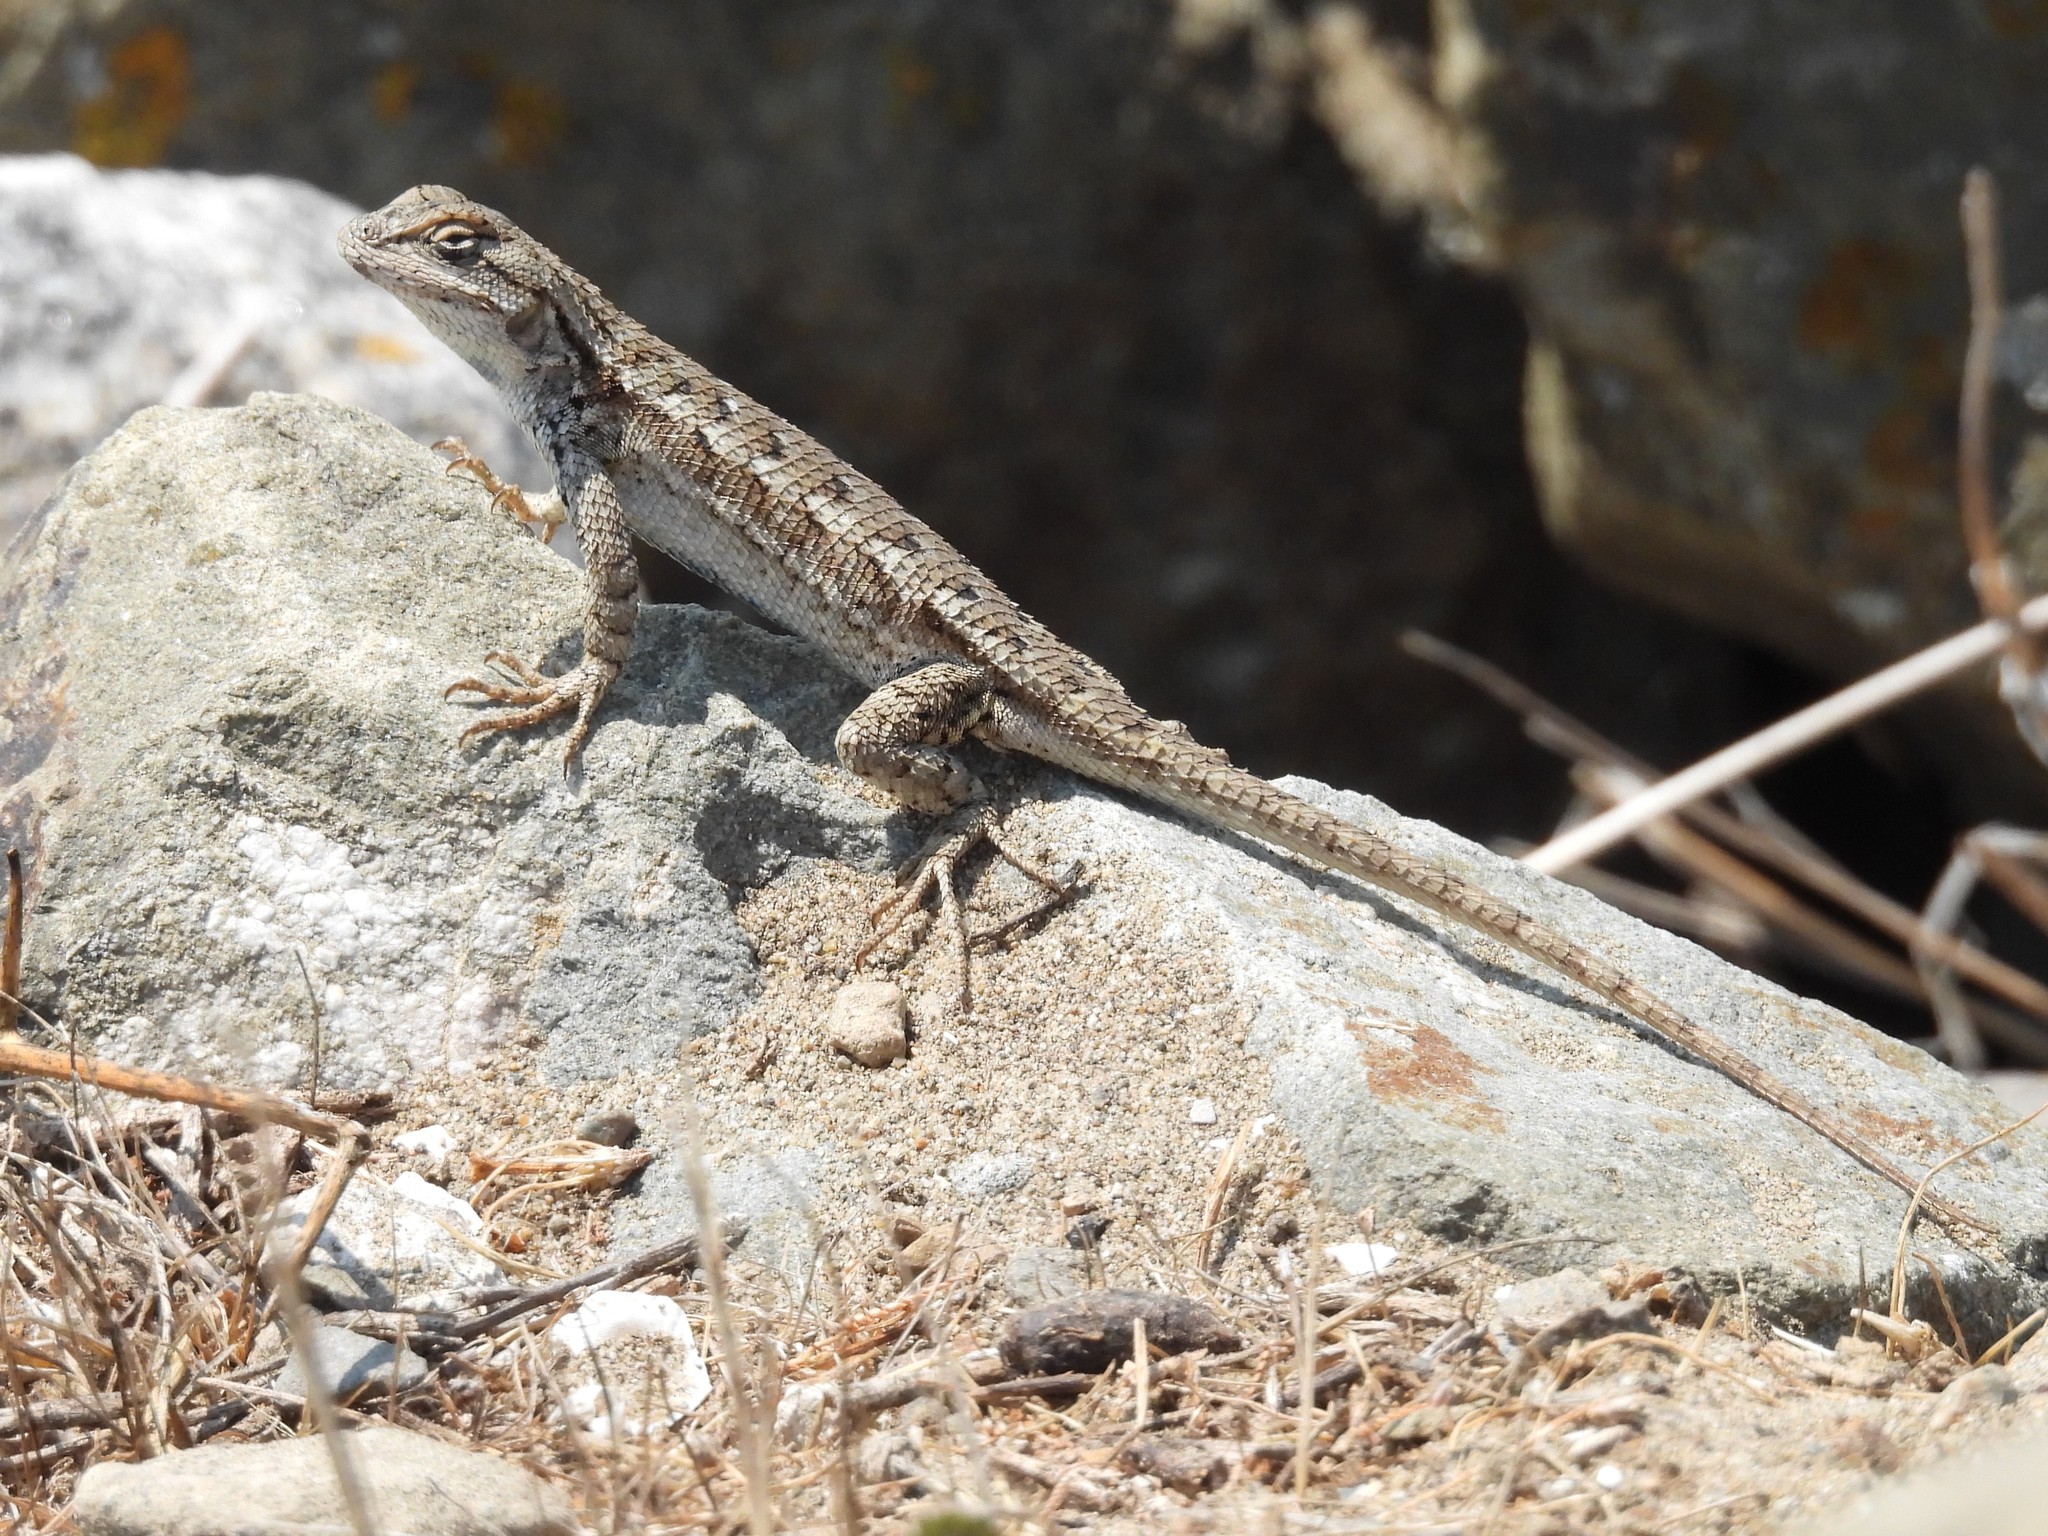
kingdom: Animalia
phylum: Chordata
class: Squamata
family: Phrynosomatidae
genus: Sceloporus
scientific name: Sceloporus occidentalis
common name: Western fence lizard
